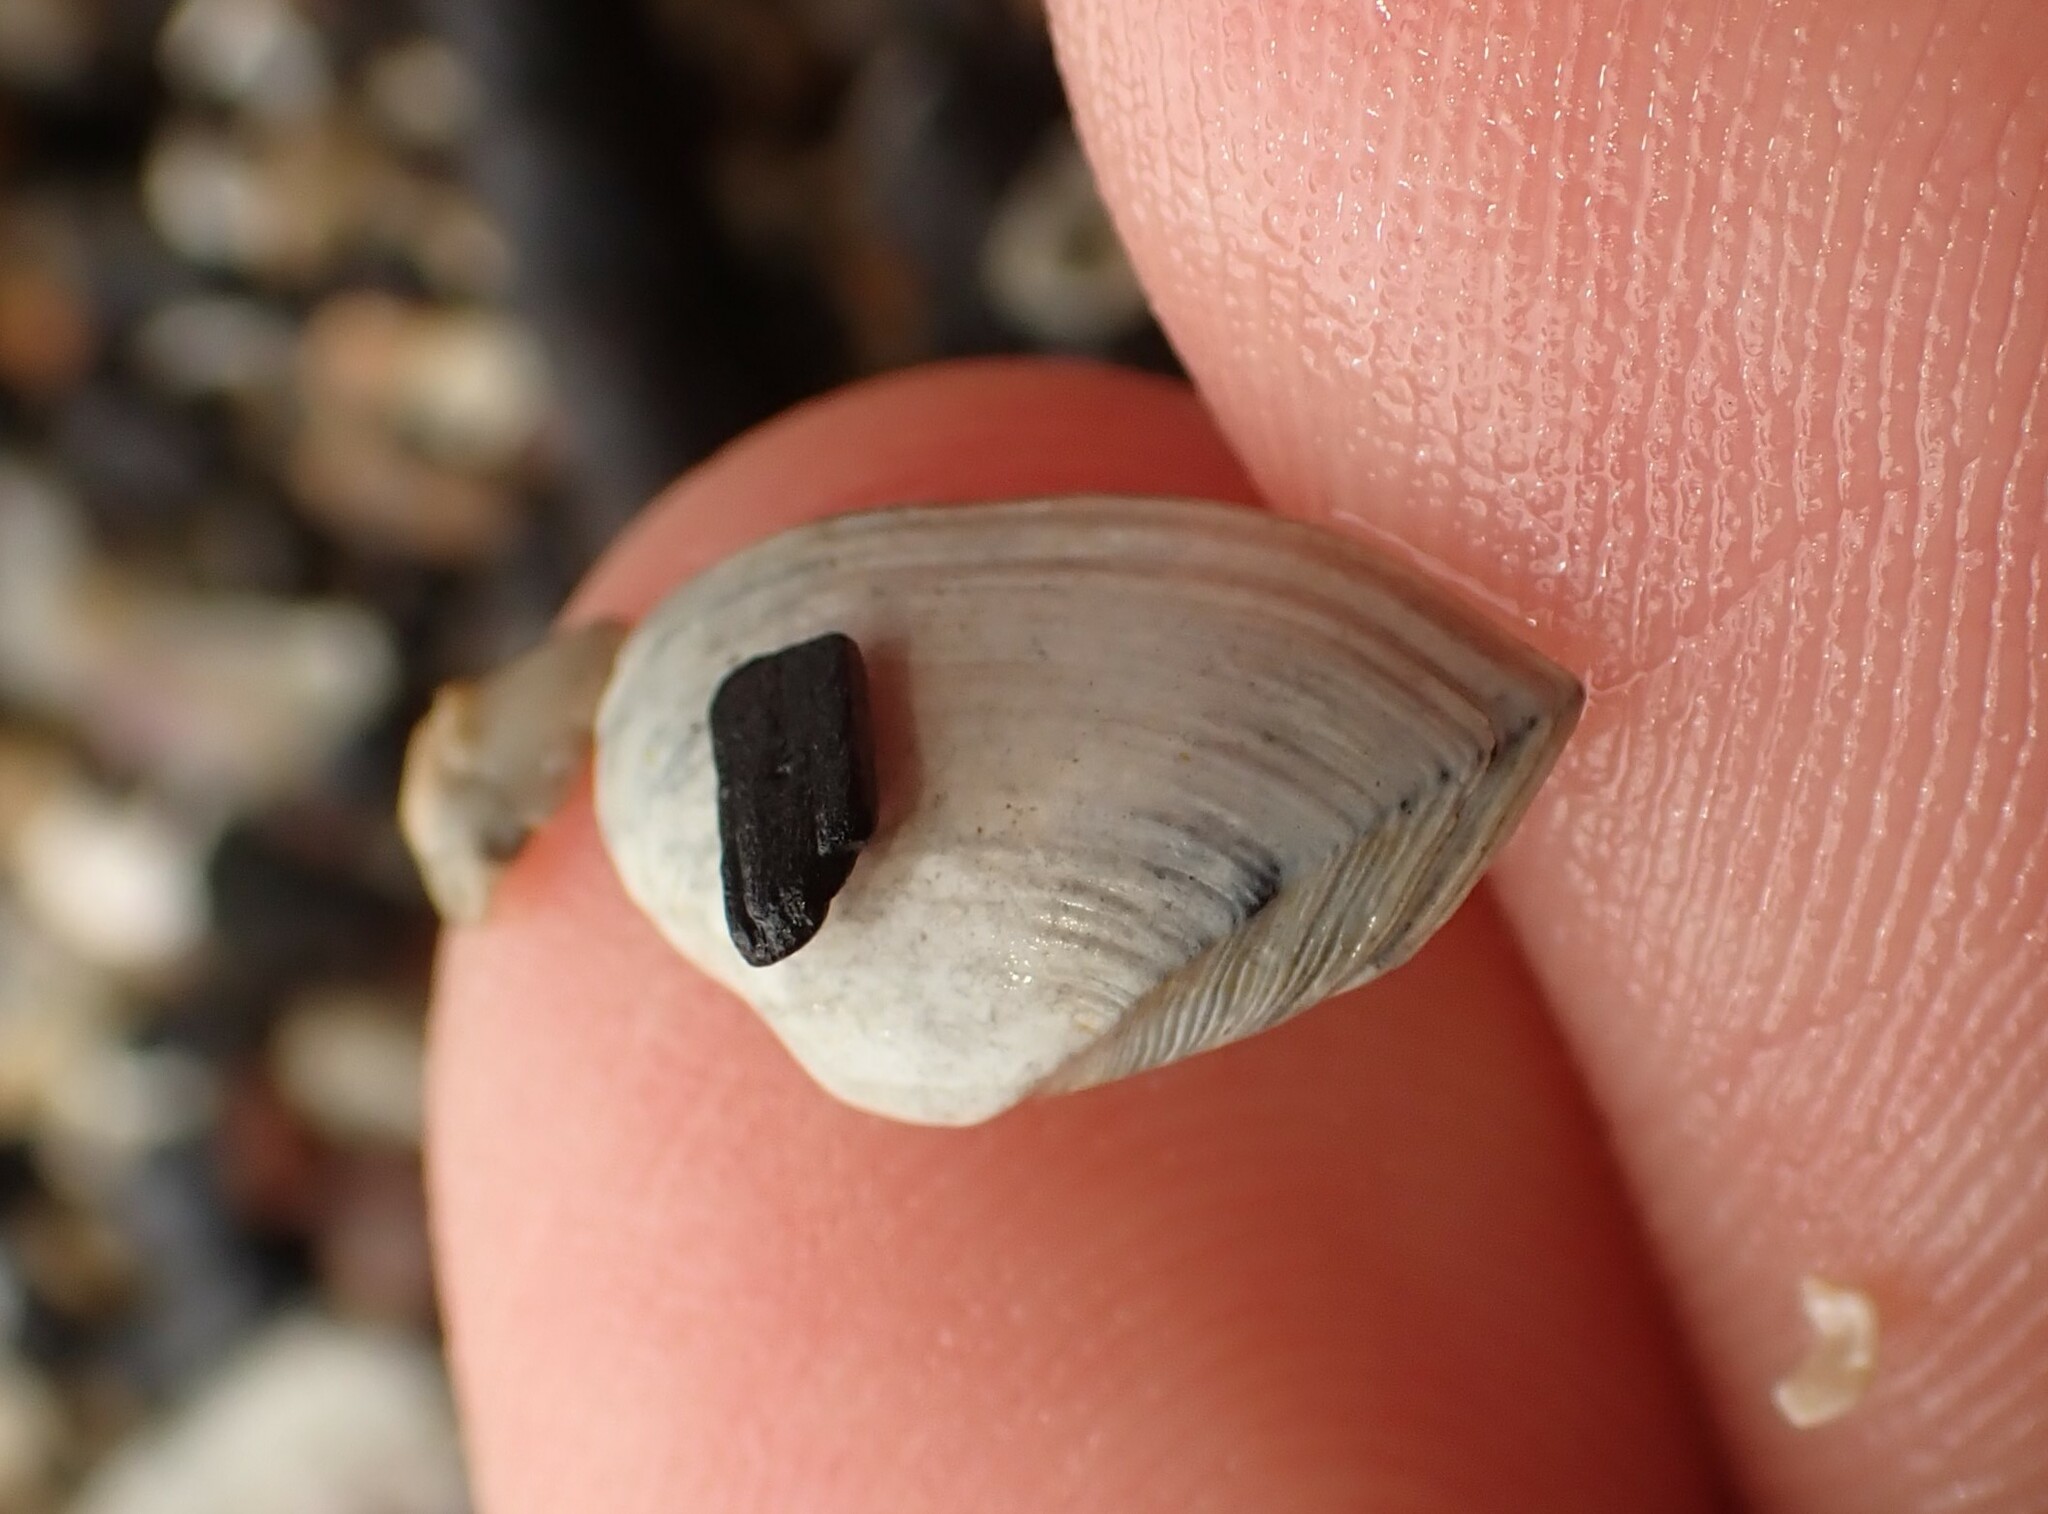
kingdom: Animalia
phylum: Mollusca
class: Bivalvia
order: Myida
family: Corbulidae
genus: Corbula
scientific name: Corbula zelandica
